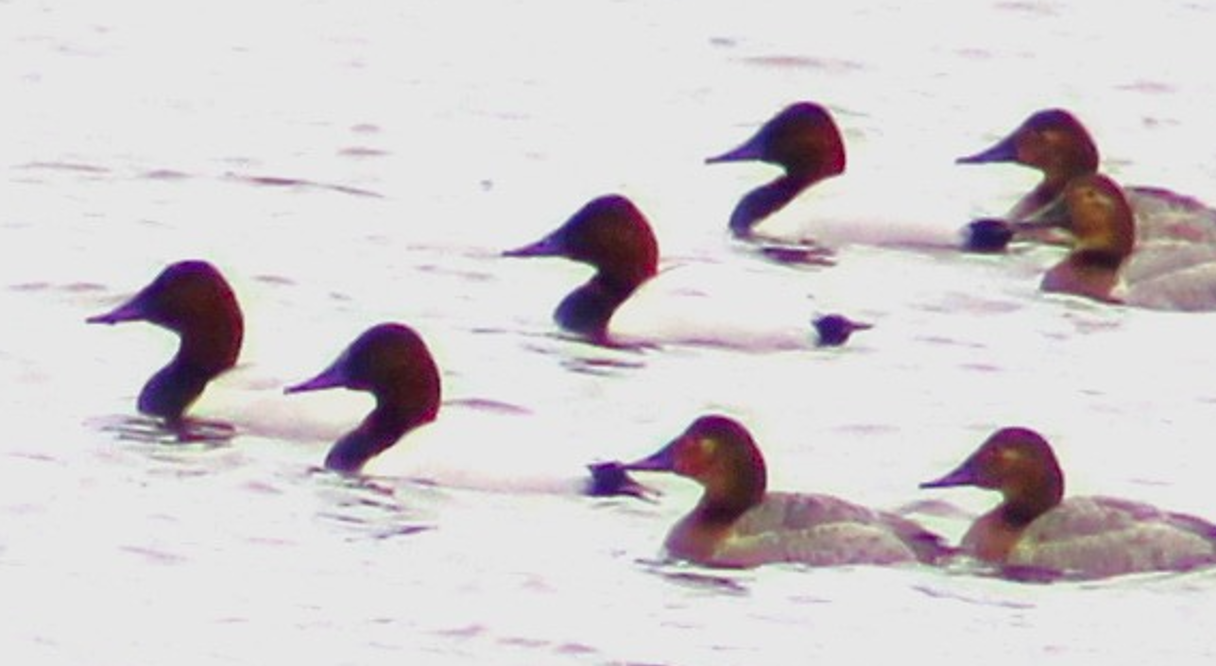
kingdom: Animalia
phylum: Chordata
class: Aves
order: Anseriformes
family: Anatidae
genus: Aythya
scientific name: Aythya valisineria
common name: Canvasback
